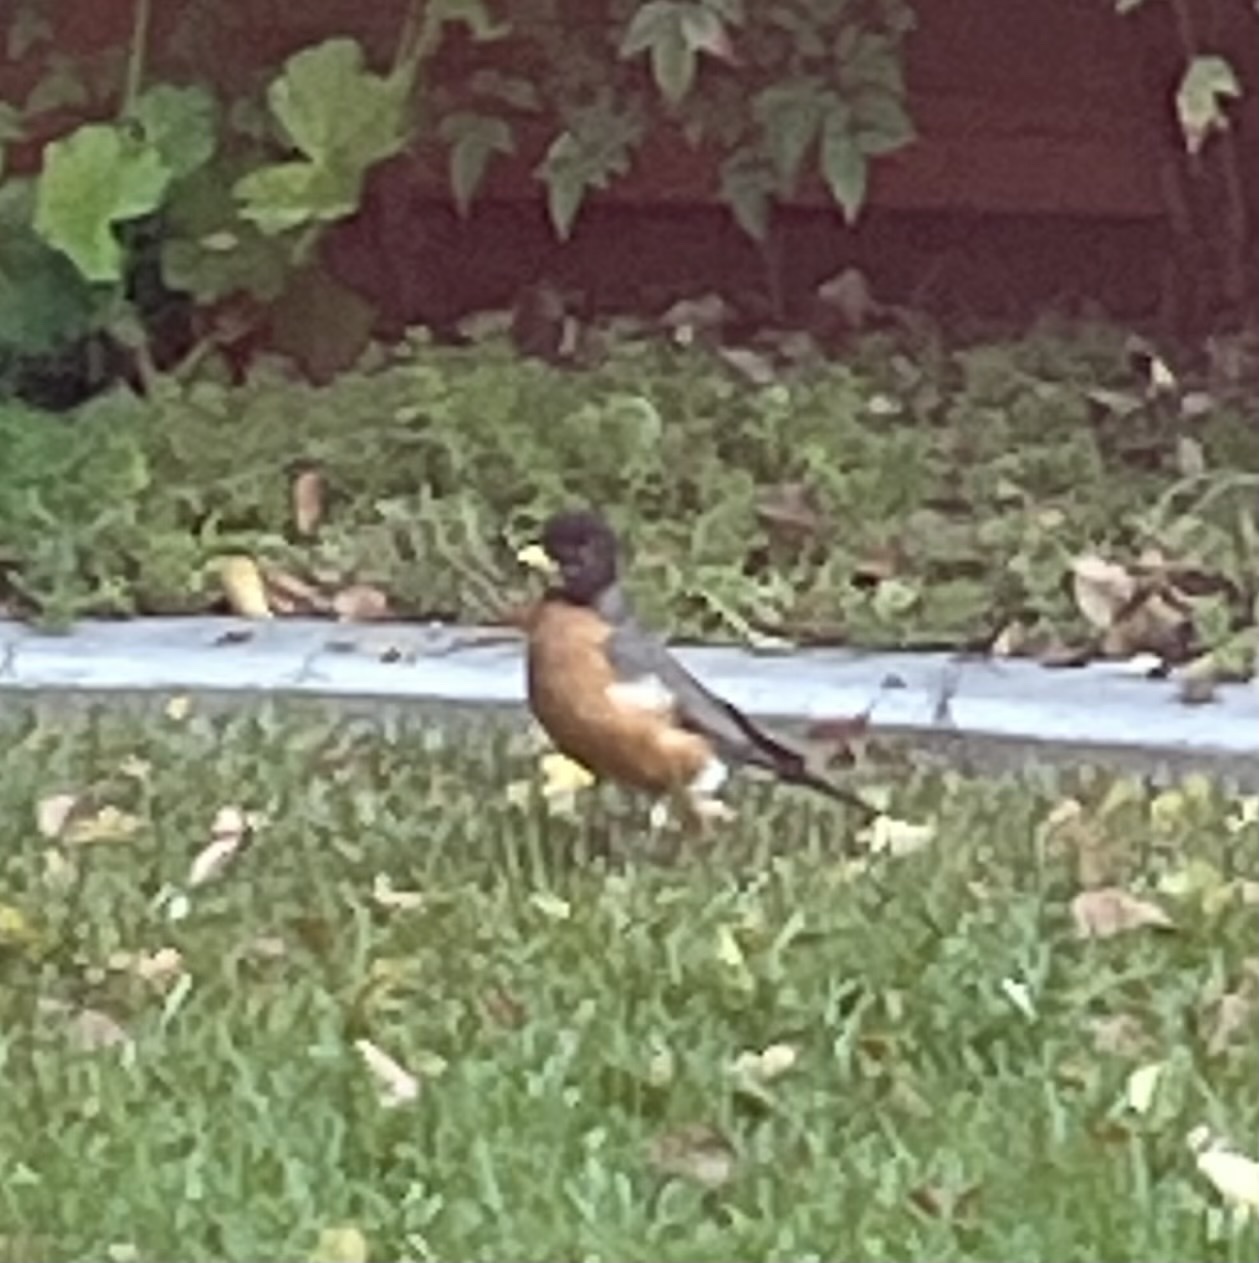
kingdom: Animalia
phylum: Chordata
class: Aves
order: Passeriformes
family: Turdidae
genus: Turdus
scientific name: Turdus migratorius
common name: American robin
